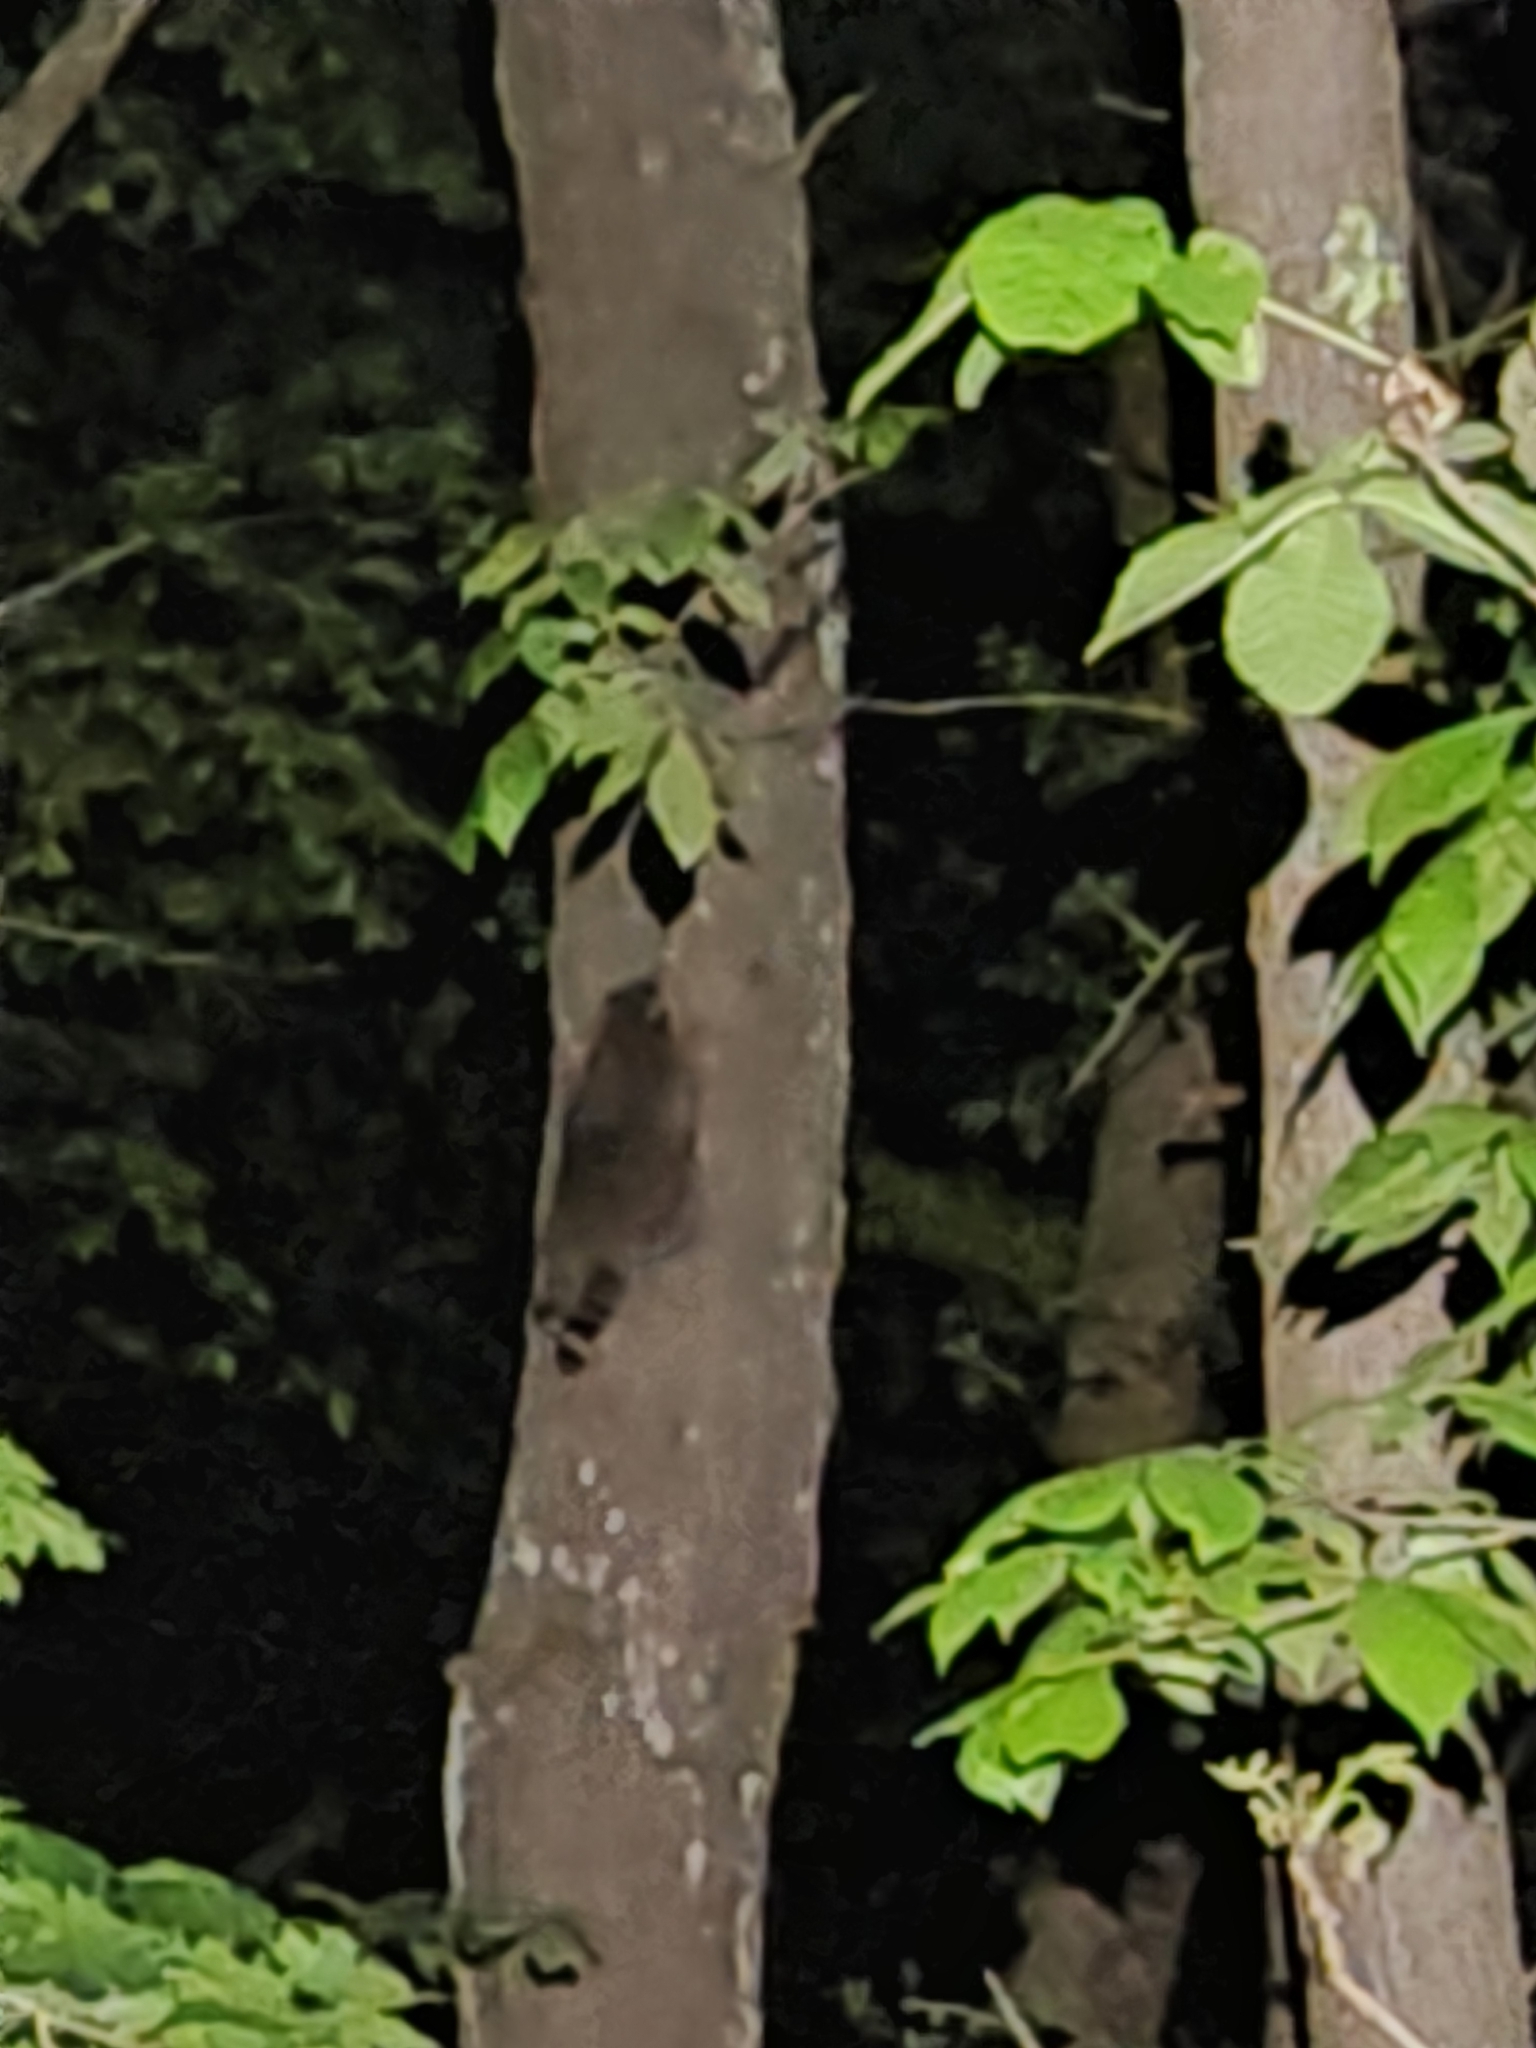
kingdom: Animalia
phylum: Chordata
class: Mammalia
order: Carnivora
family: Procyonidae
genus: Procyon
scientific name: Procyon lotor
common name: Raccoon
